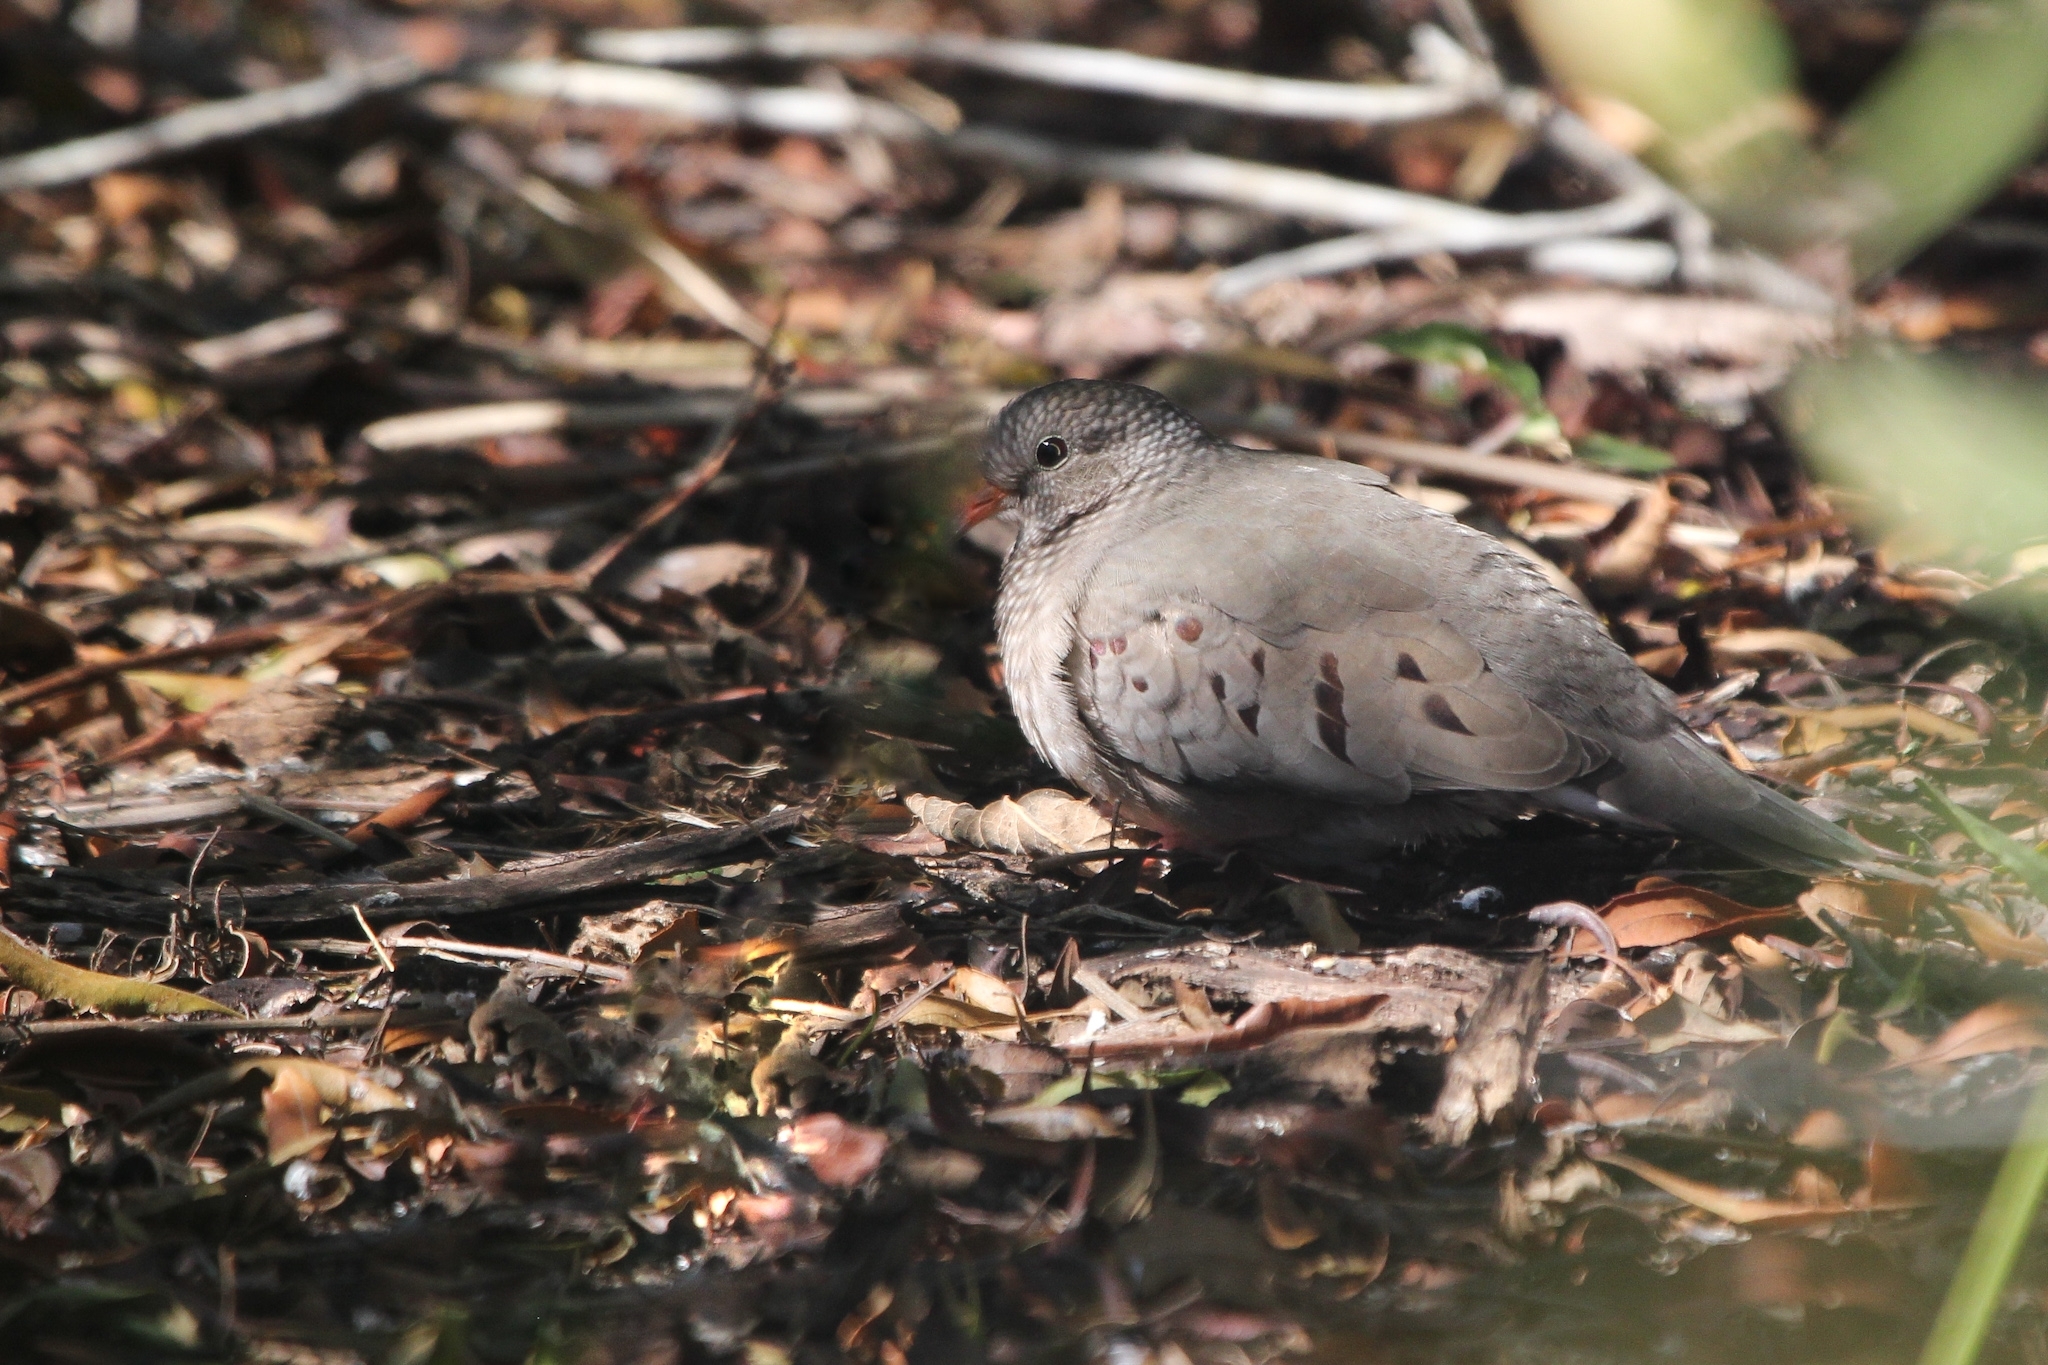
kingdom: Animalia
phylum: Chordata
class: Aves
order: Columbiformes
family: Columbidae
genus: Columbina
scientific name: Columbina passerina
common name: Common ground-dove
